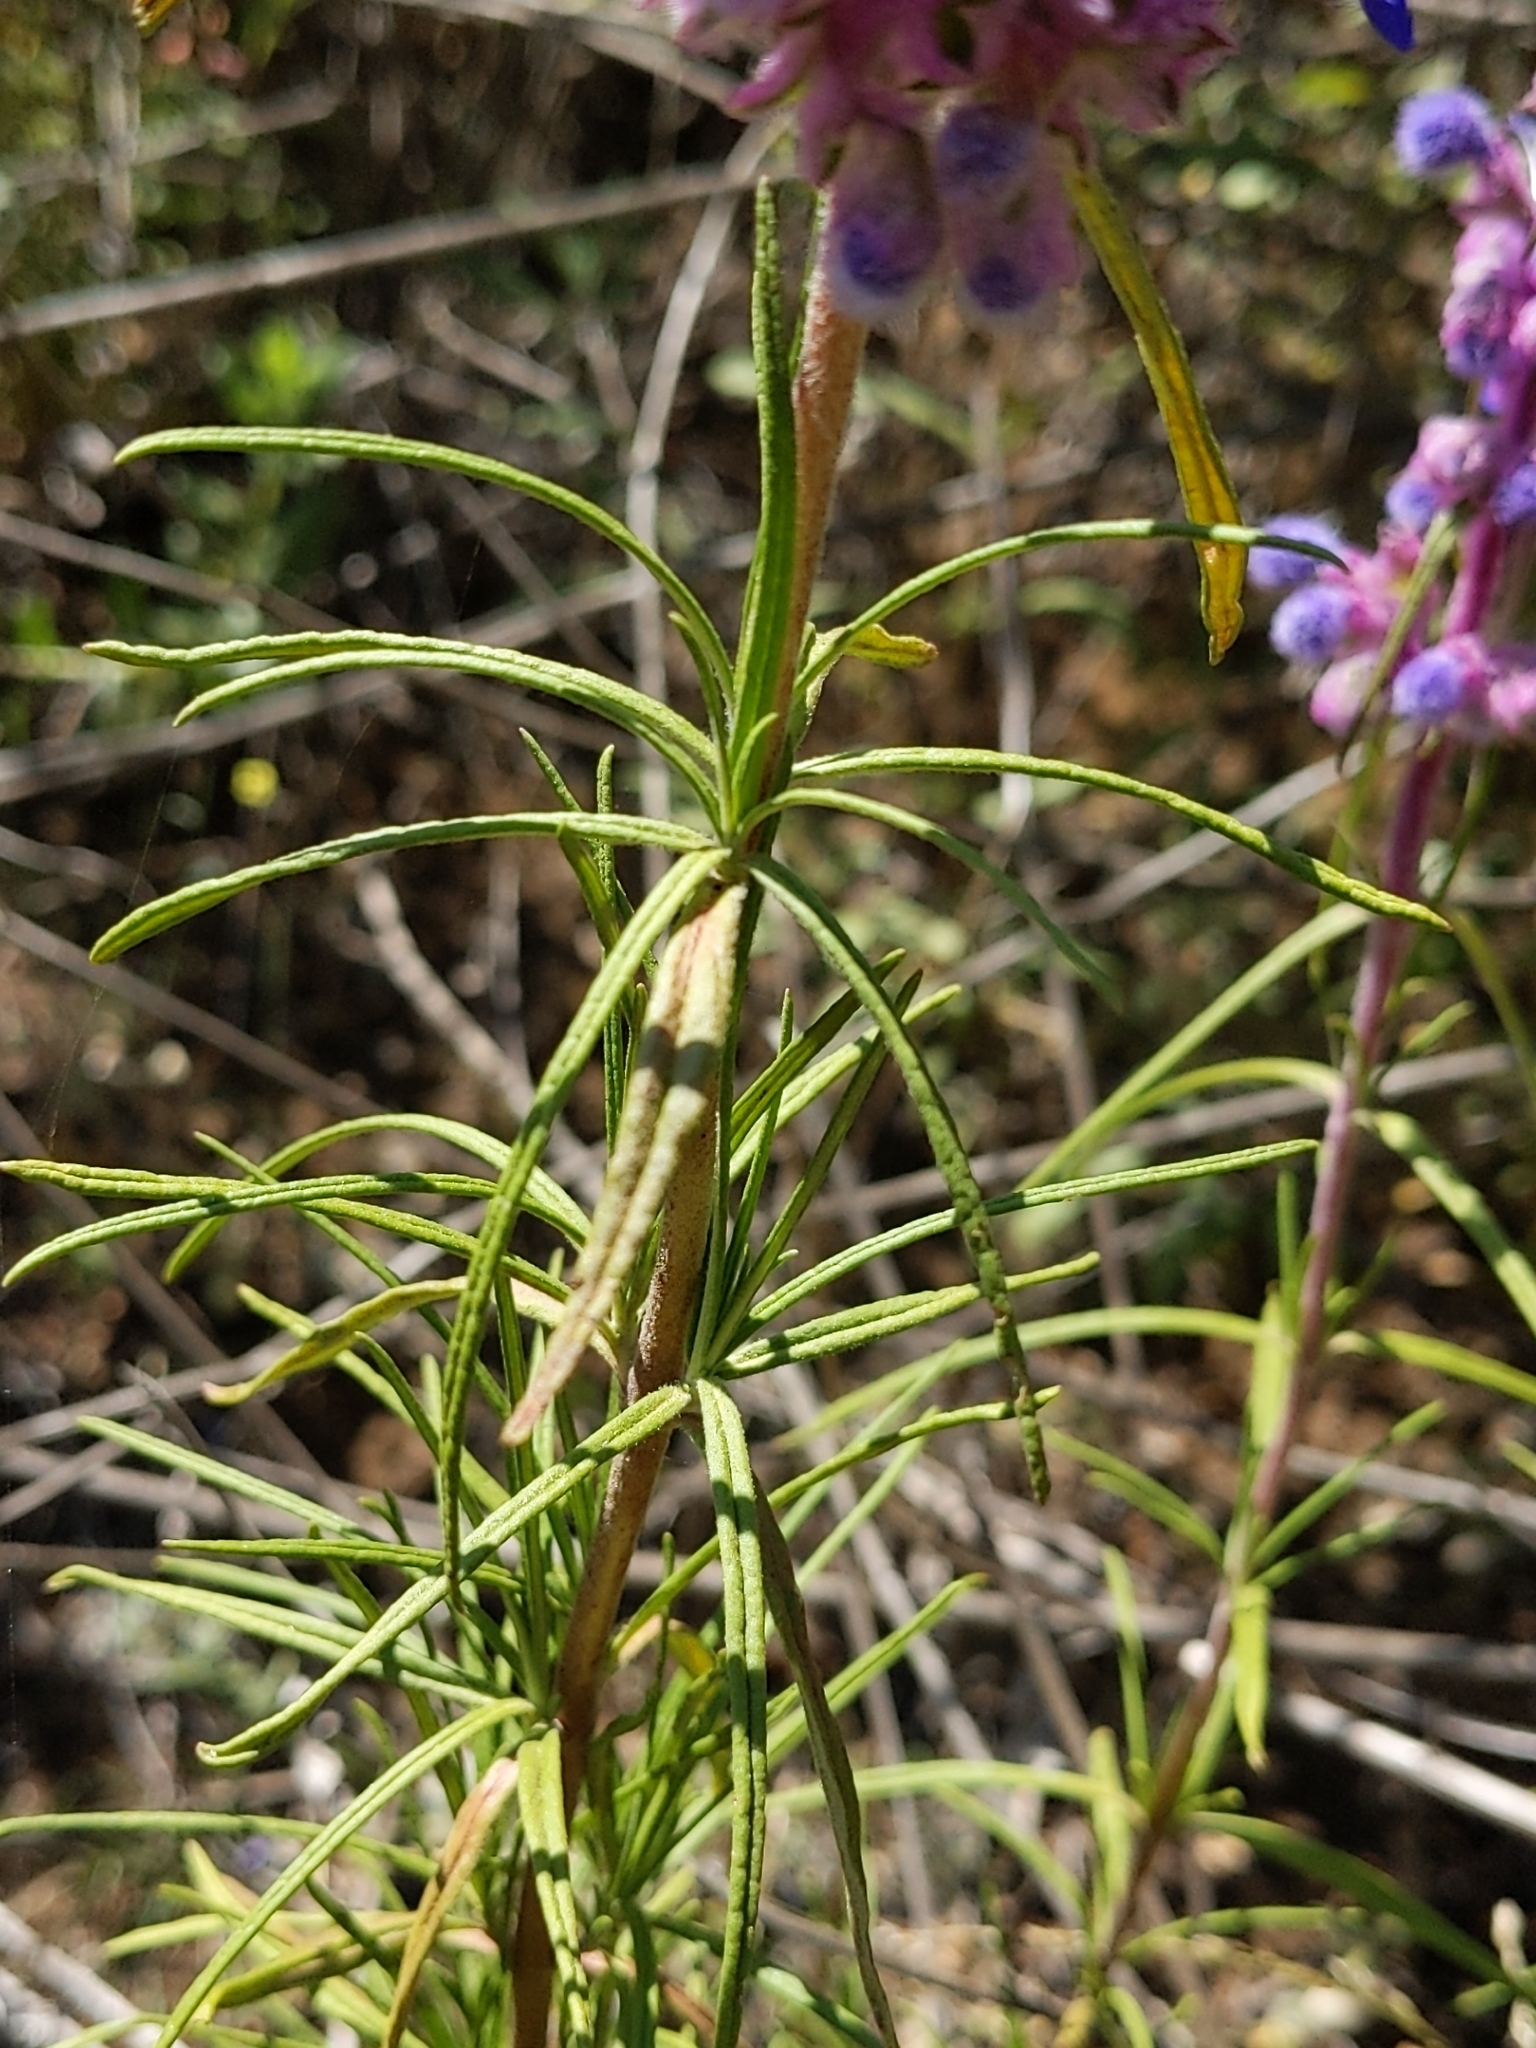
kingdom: Plantae
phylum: Tracheophyta
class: Magnoliopsida
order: Lamiales
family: Lamiaceae
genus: Trichostema
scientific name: Trichostema lanatum
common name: Woolly bluecurls
